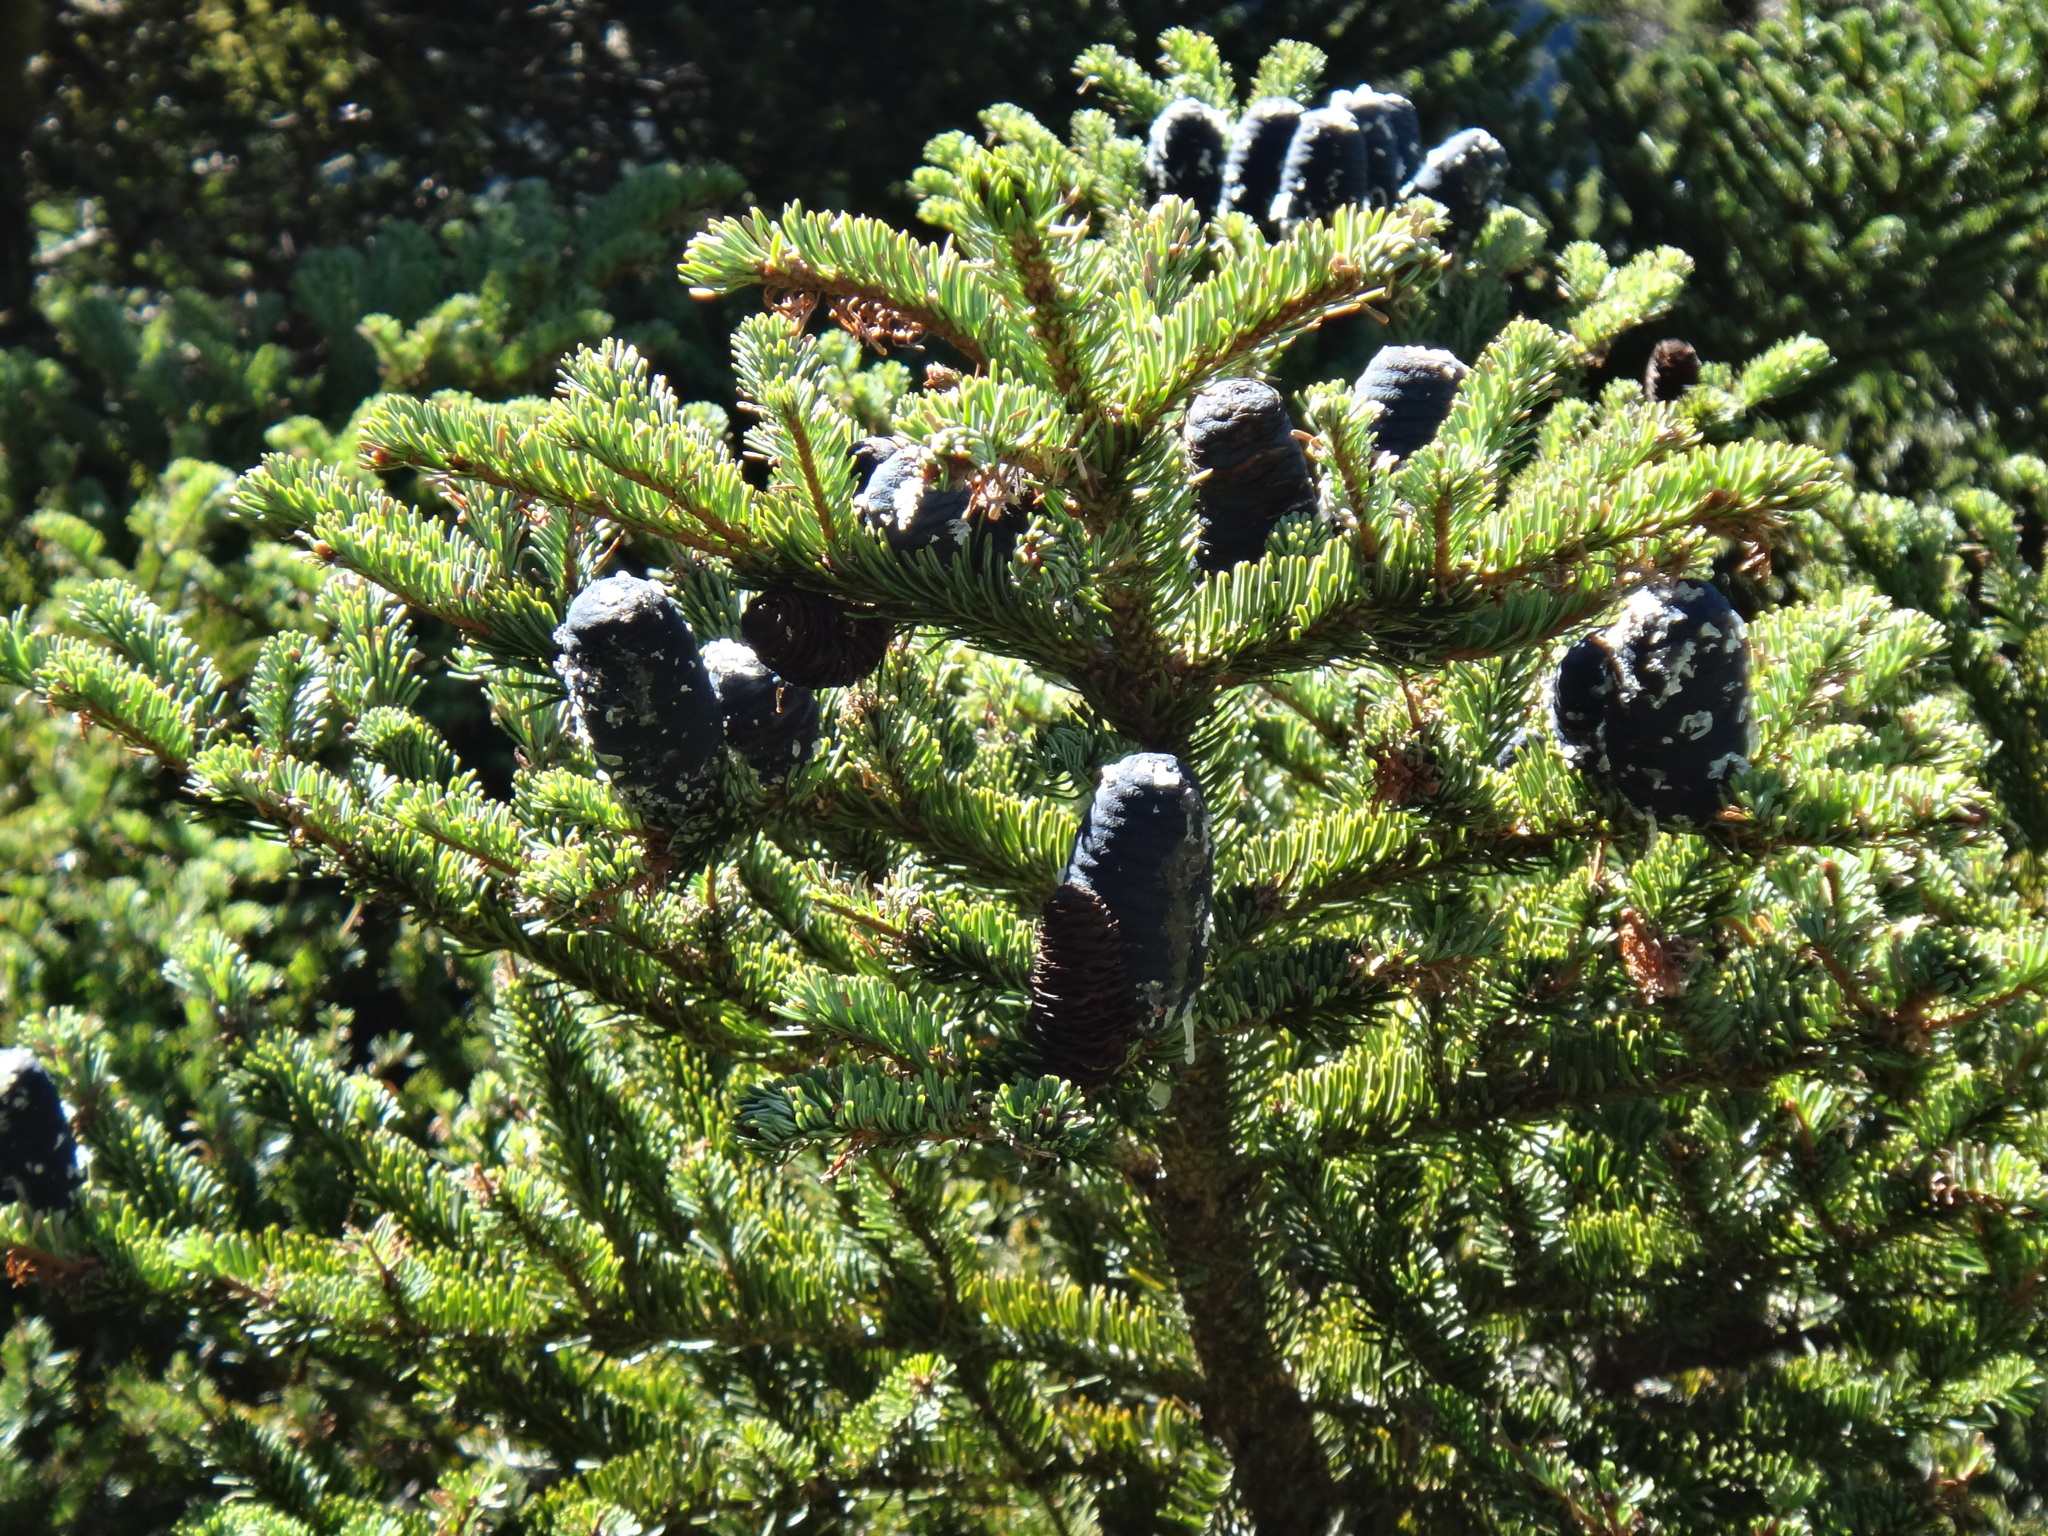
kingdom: Plantae
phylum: Tracheophyta
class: Pinopsida
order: Pinales
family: Pinaceae
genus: Abies
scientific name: Abies kawakamii
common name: Taiwan fir
